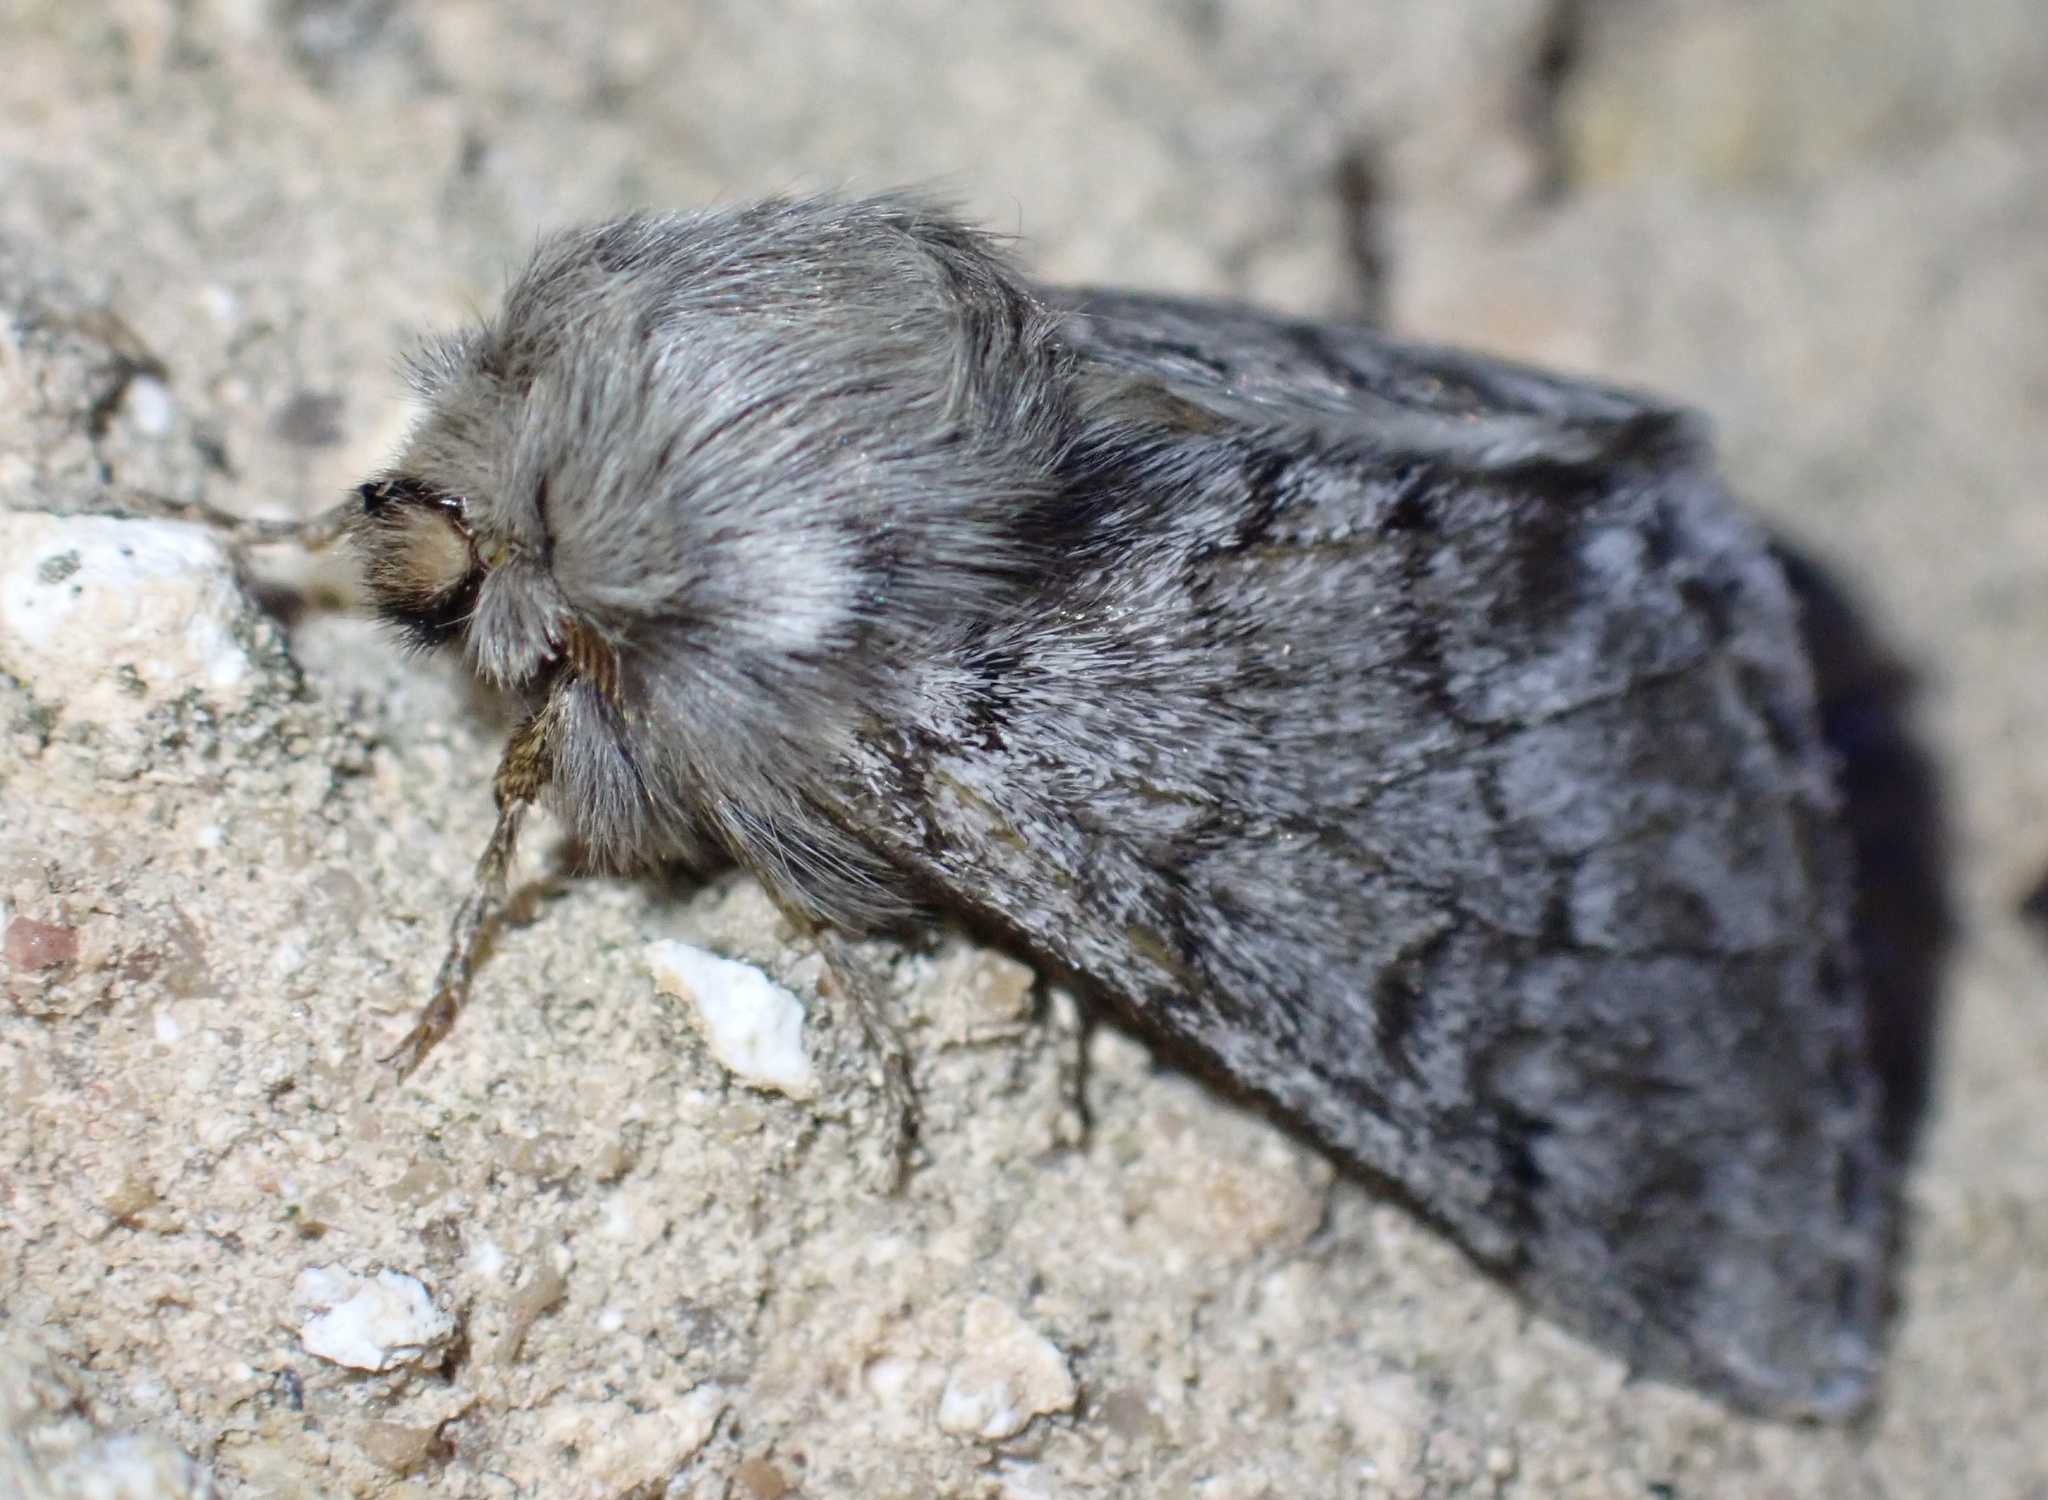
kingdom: Animalia
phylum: Arthropoda
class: Insecta
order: Lepidoptera
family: Notodontidae
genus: Thaumetopoea
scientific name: Thaumetopoea pityocampa
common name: Pine processionary
